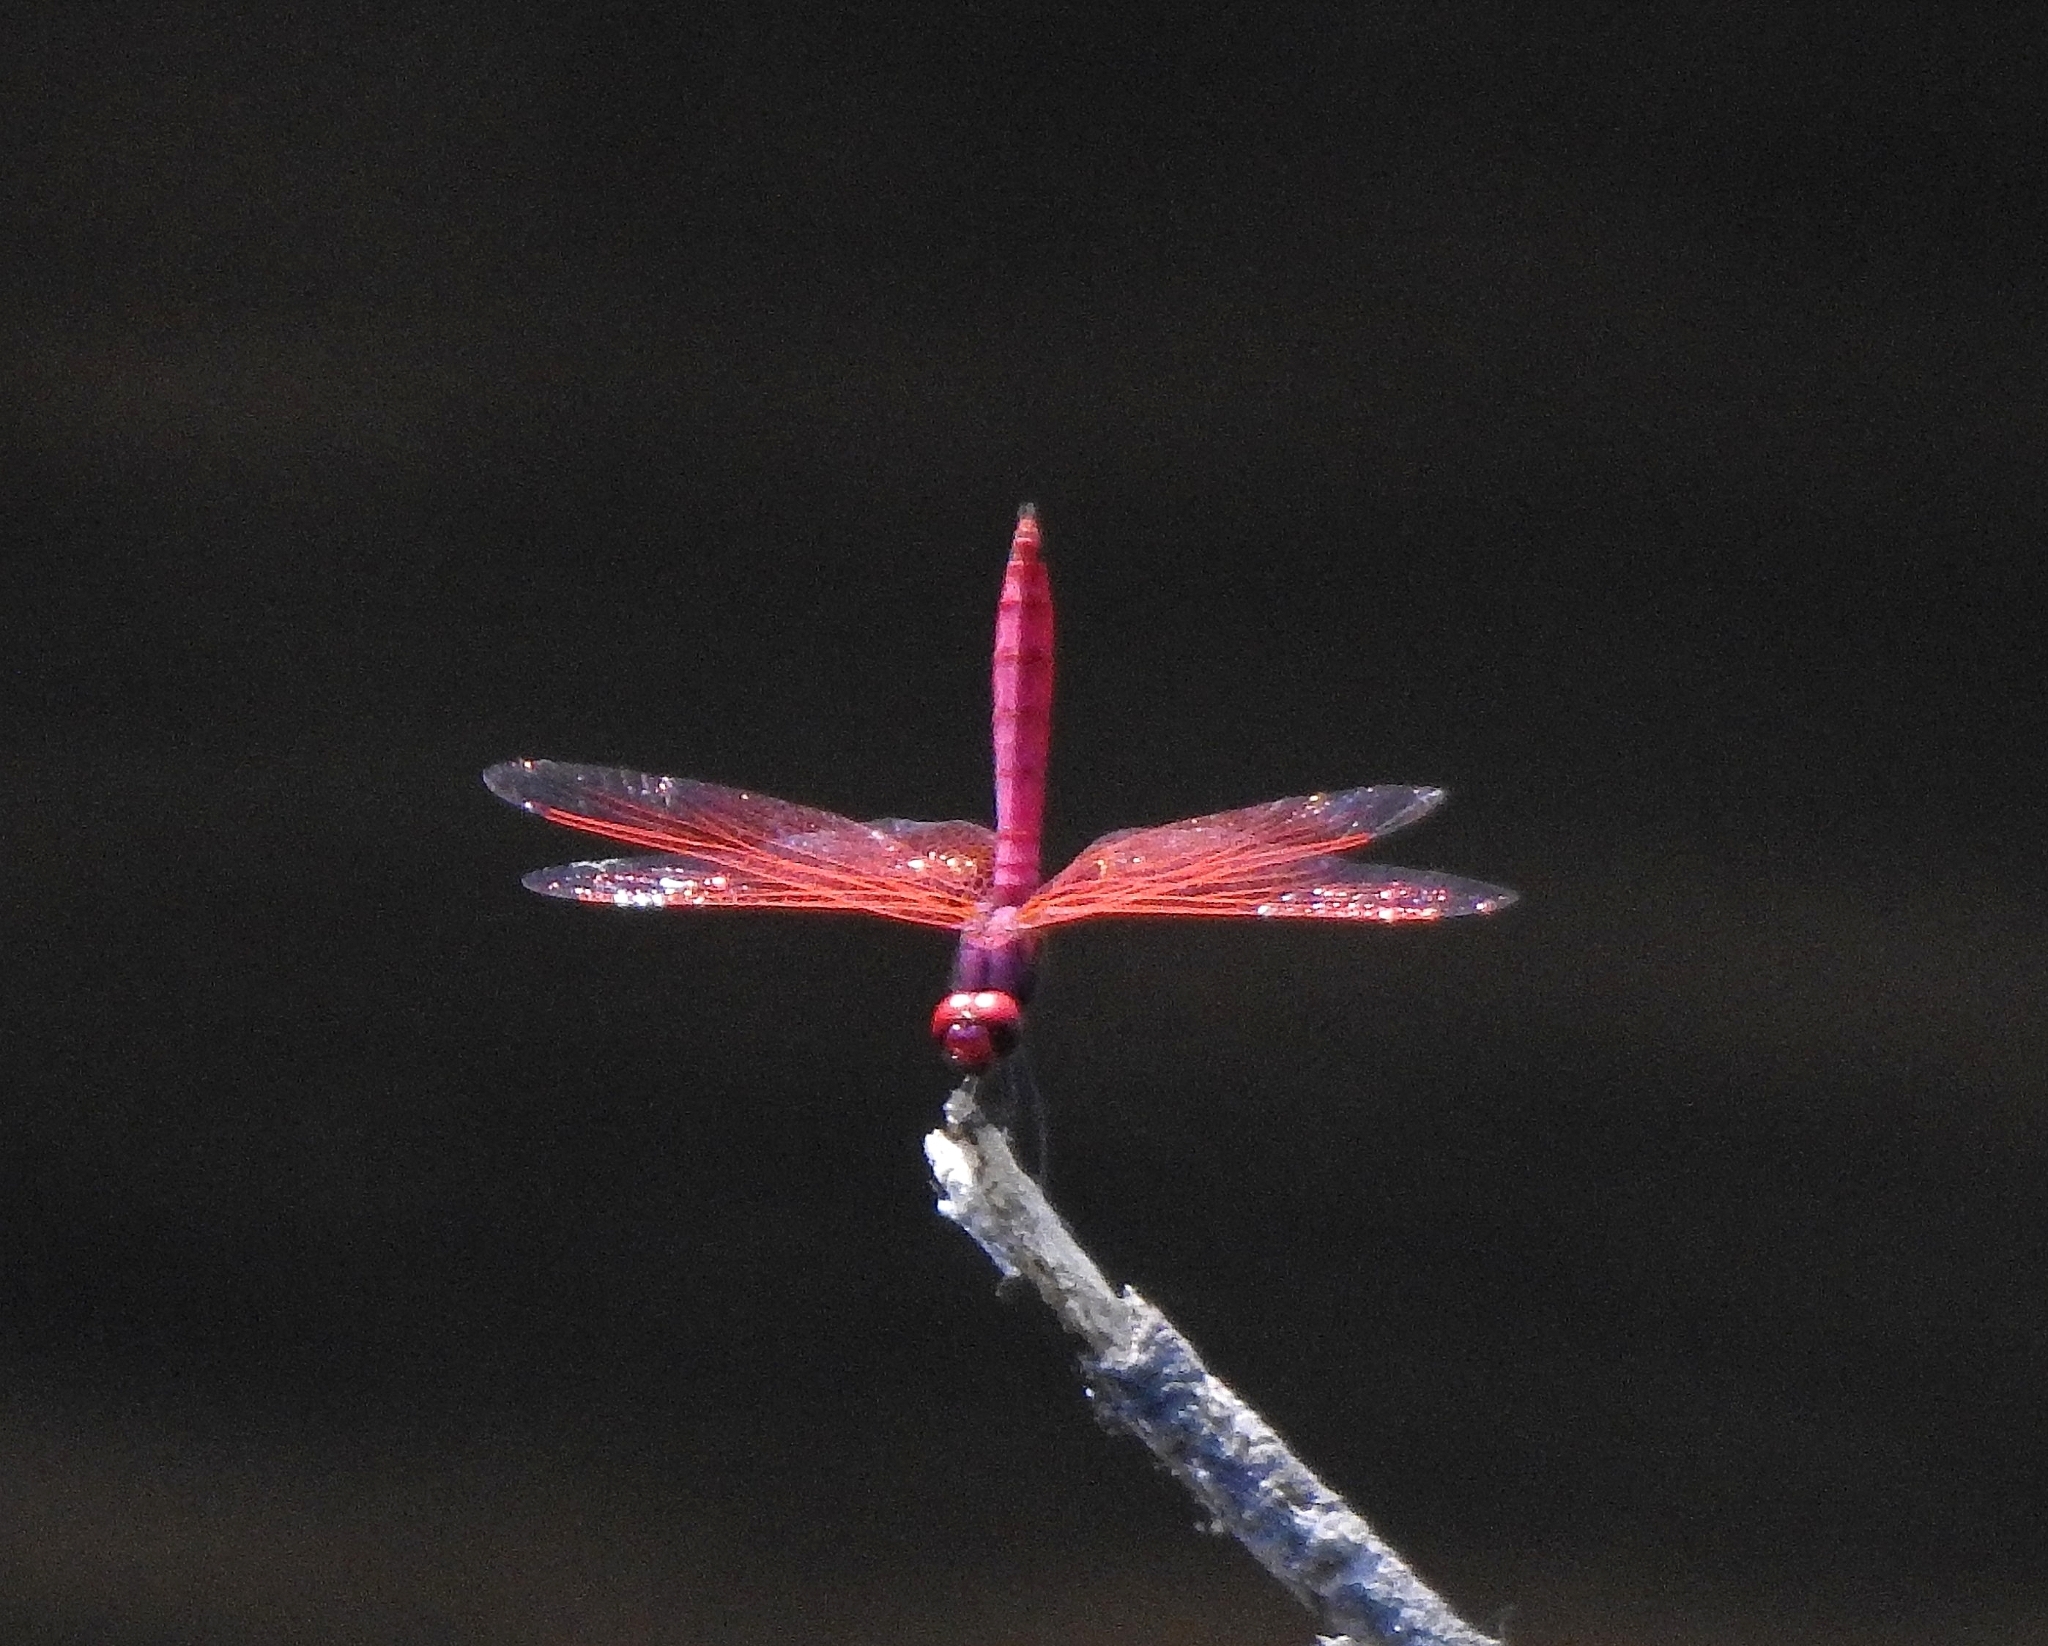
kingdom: Animalia
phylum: Arthropoda
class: Insecta
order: Odonata
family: Libellulidae
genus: Trithemis
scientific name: Trithemis aurora
